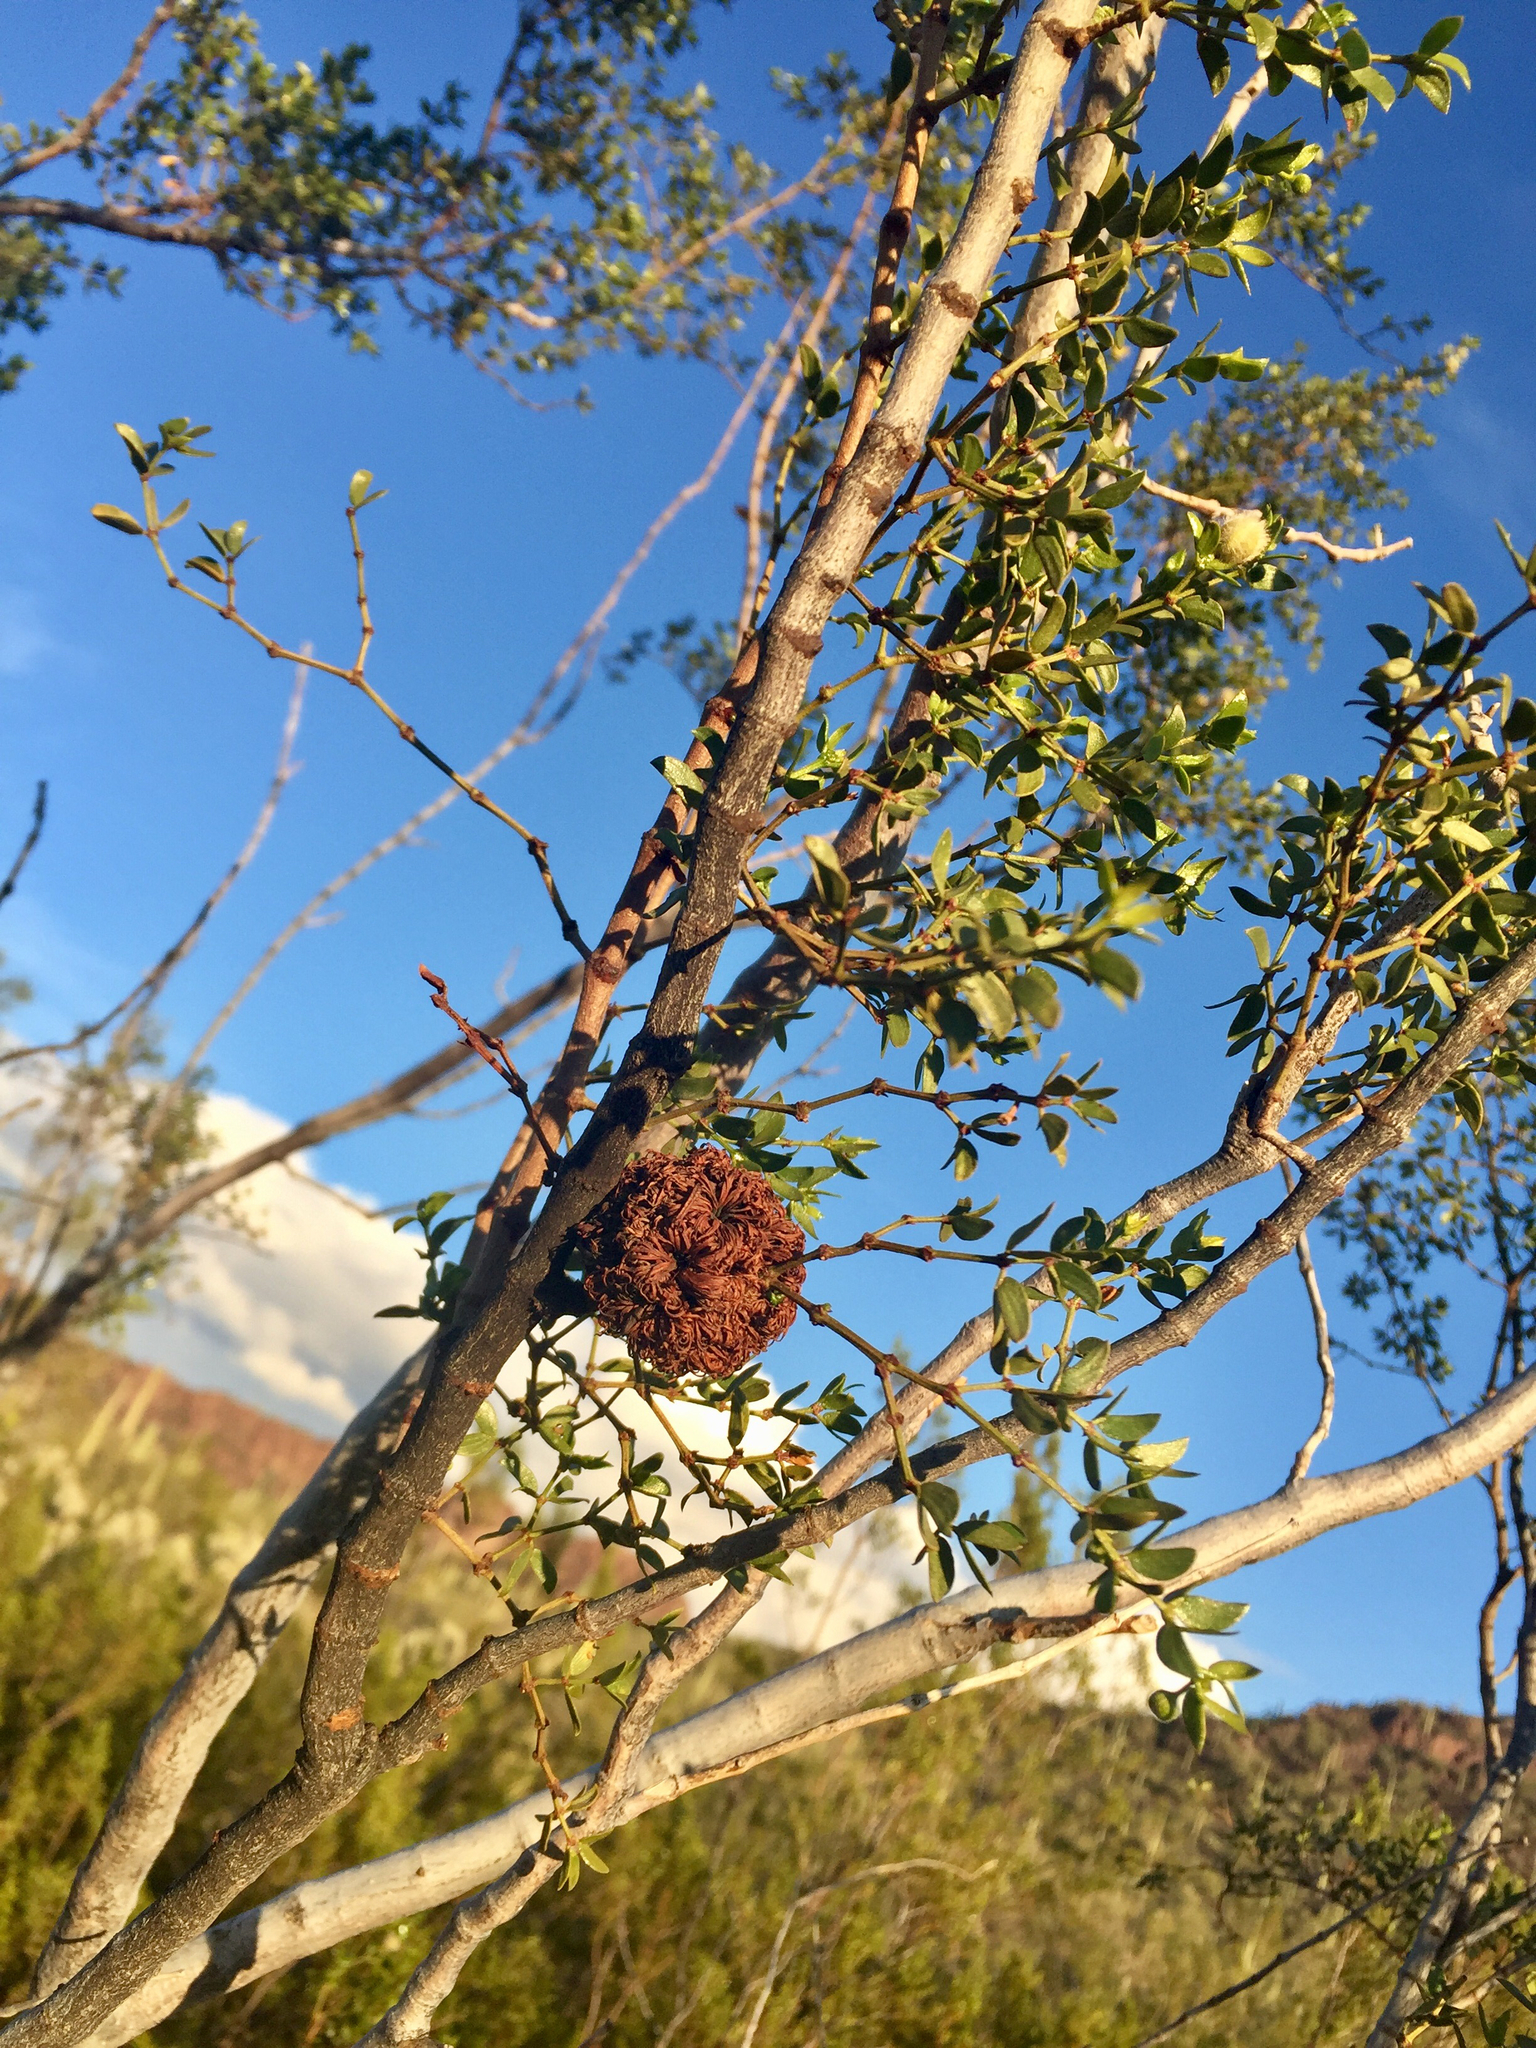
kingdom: Animalia
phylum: Arthropoda
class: Insecta
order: Diptera
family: Cecidomyiidae
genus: Asphondylia
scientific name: Asphondylia auripila
